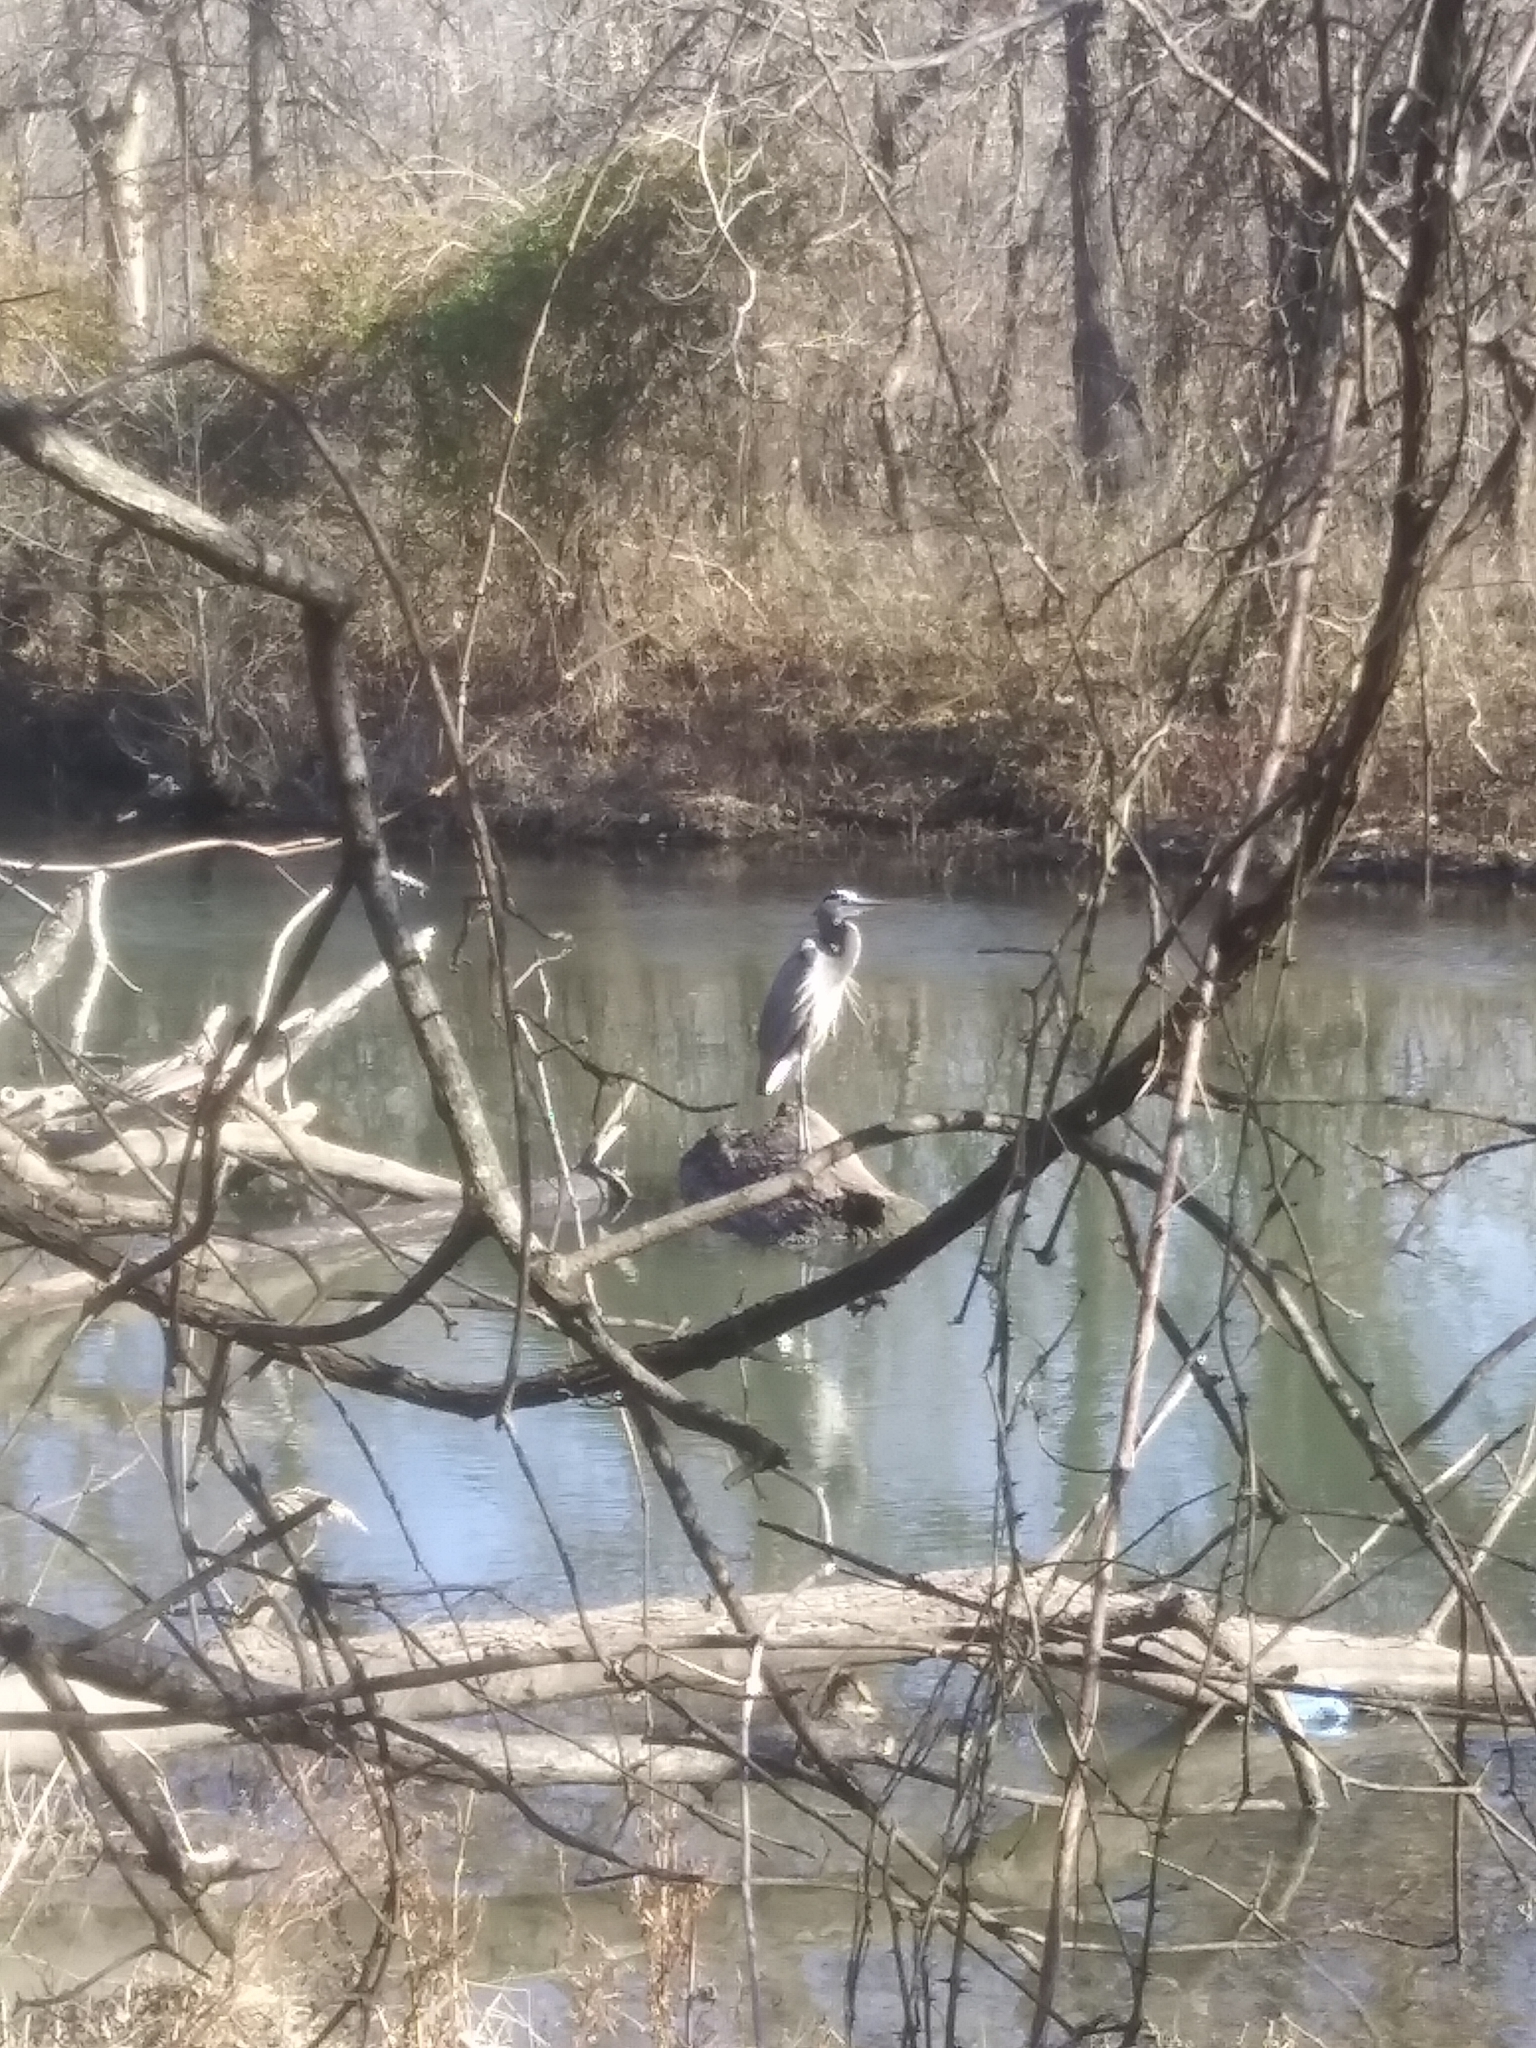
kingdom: Animalia
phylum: Chordata
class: Aves
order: Pelecaniformes
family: Ardeidae
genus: Ardea
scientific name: Ardea herodias
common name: Great blue heron
